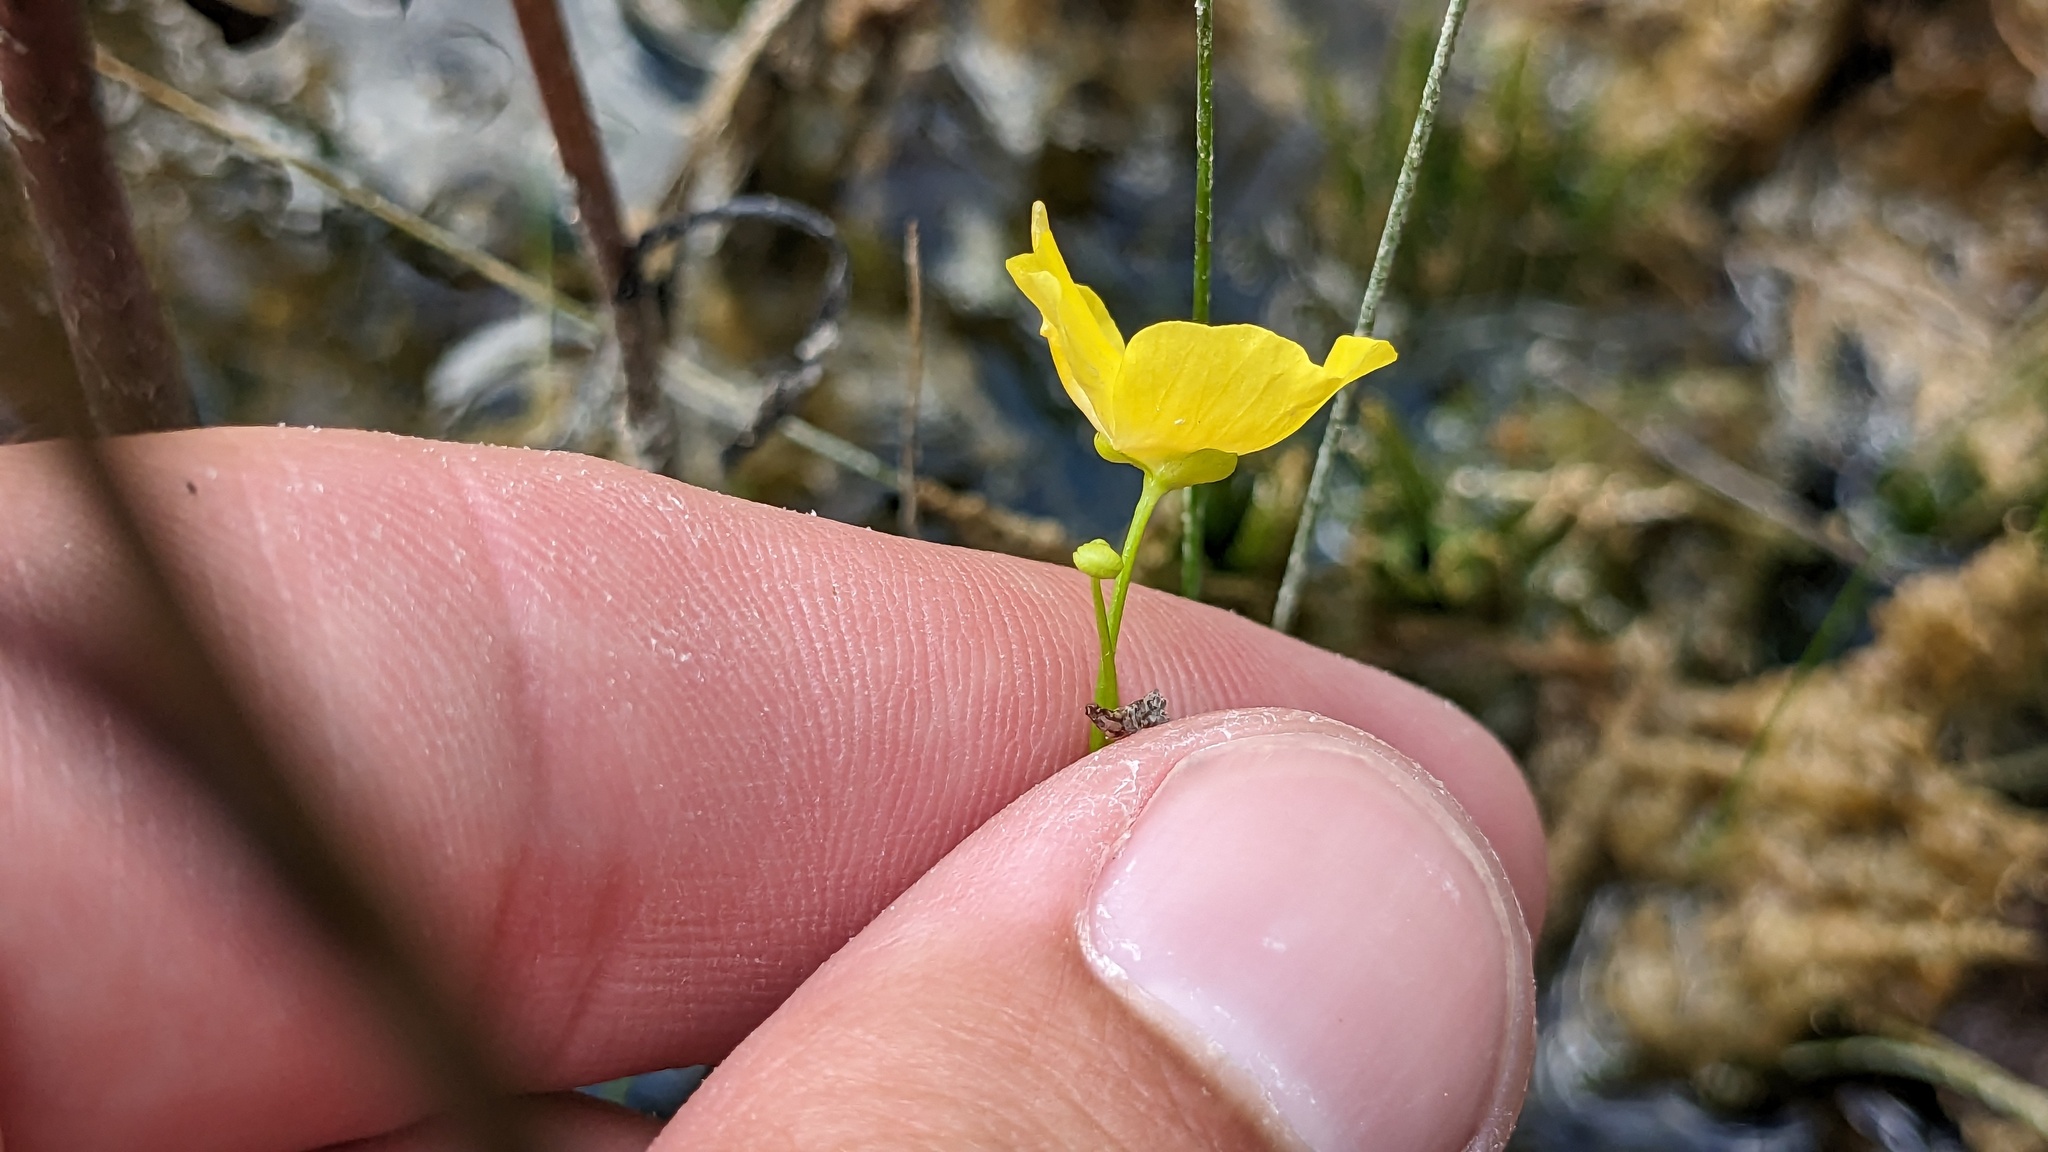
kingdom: Plantae
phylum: Tracheophyta
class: Magnoliopsida
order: Lamiales
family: Lentibulariaceae
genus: Utricularia
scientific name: Utricularia gibba
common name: Humped bladderwort
